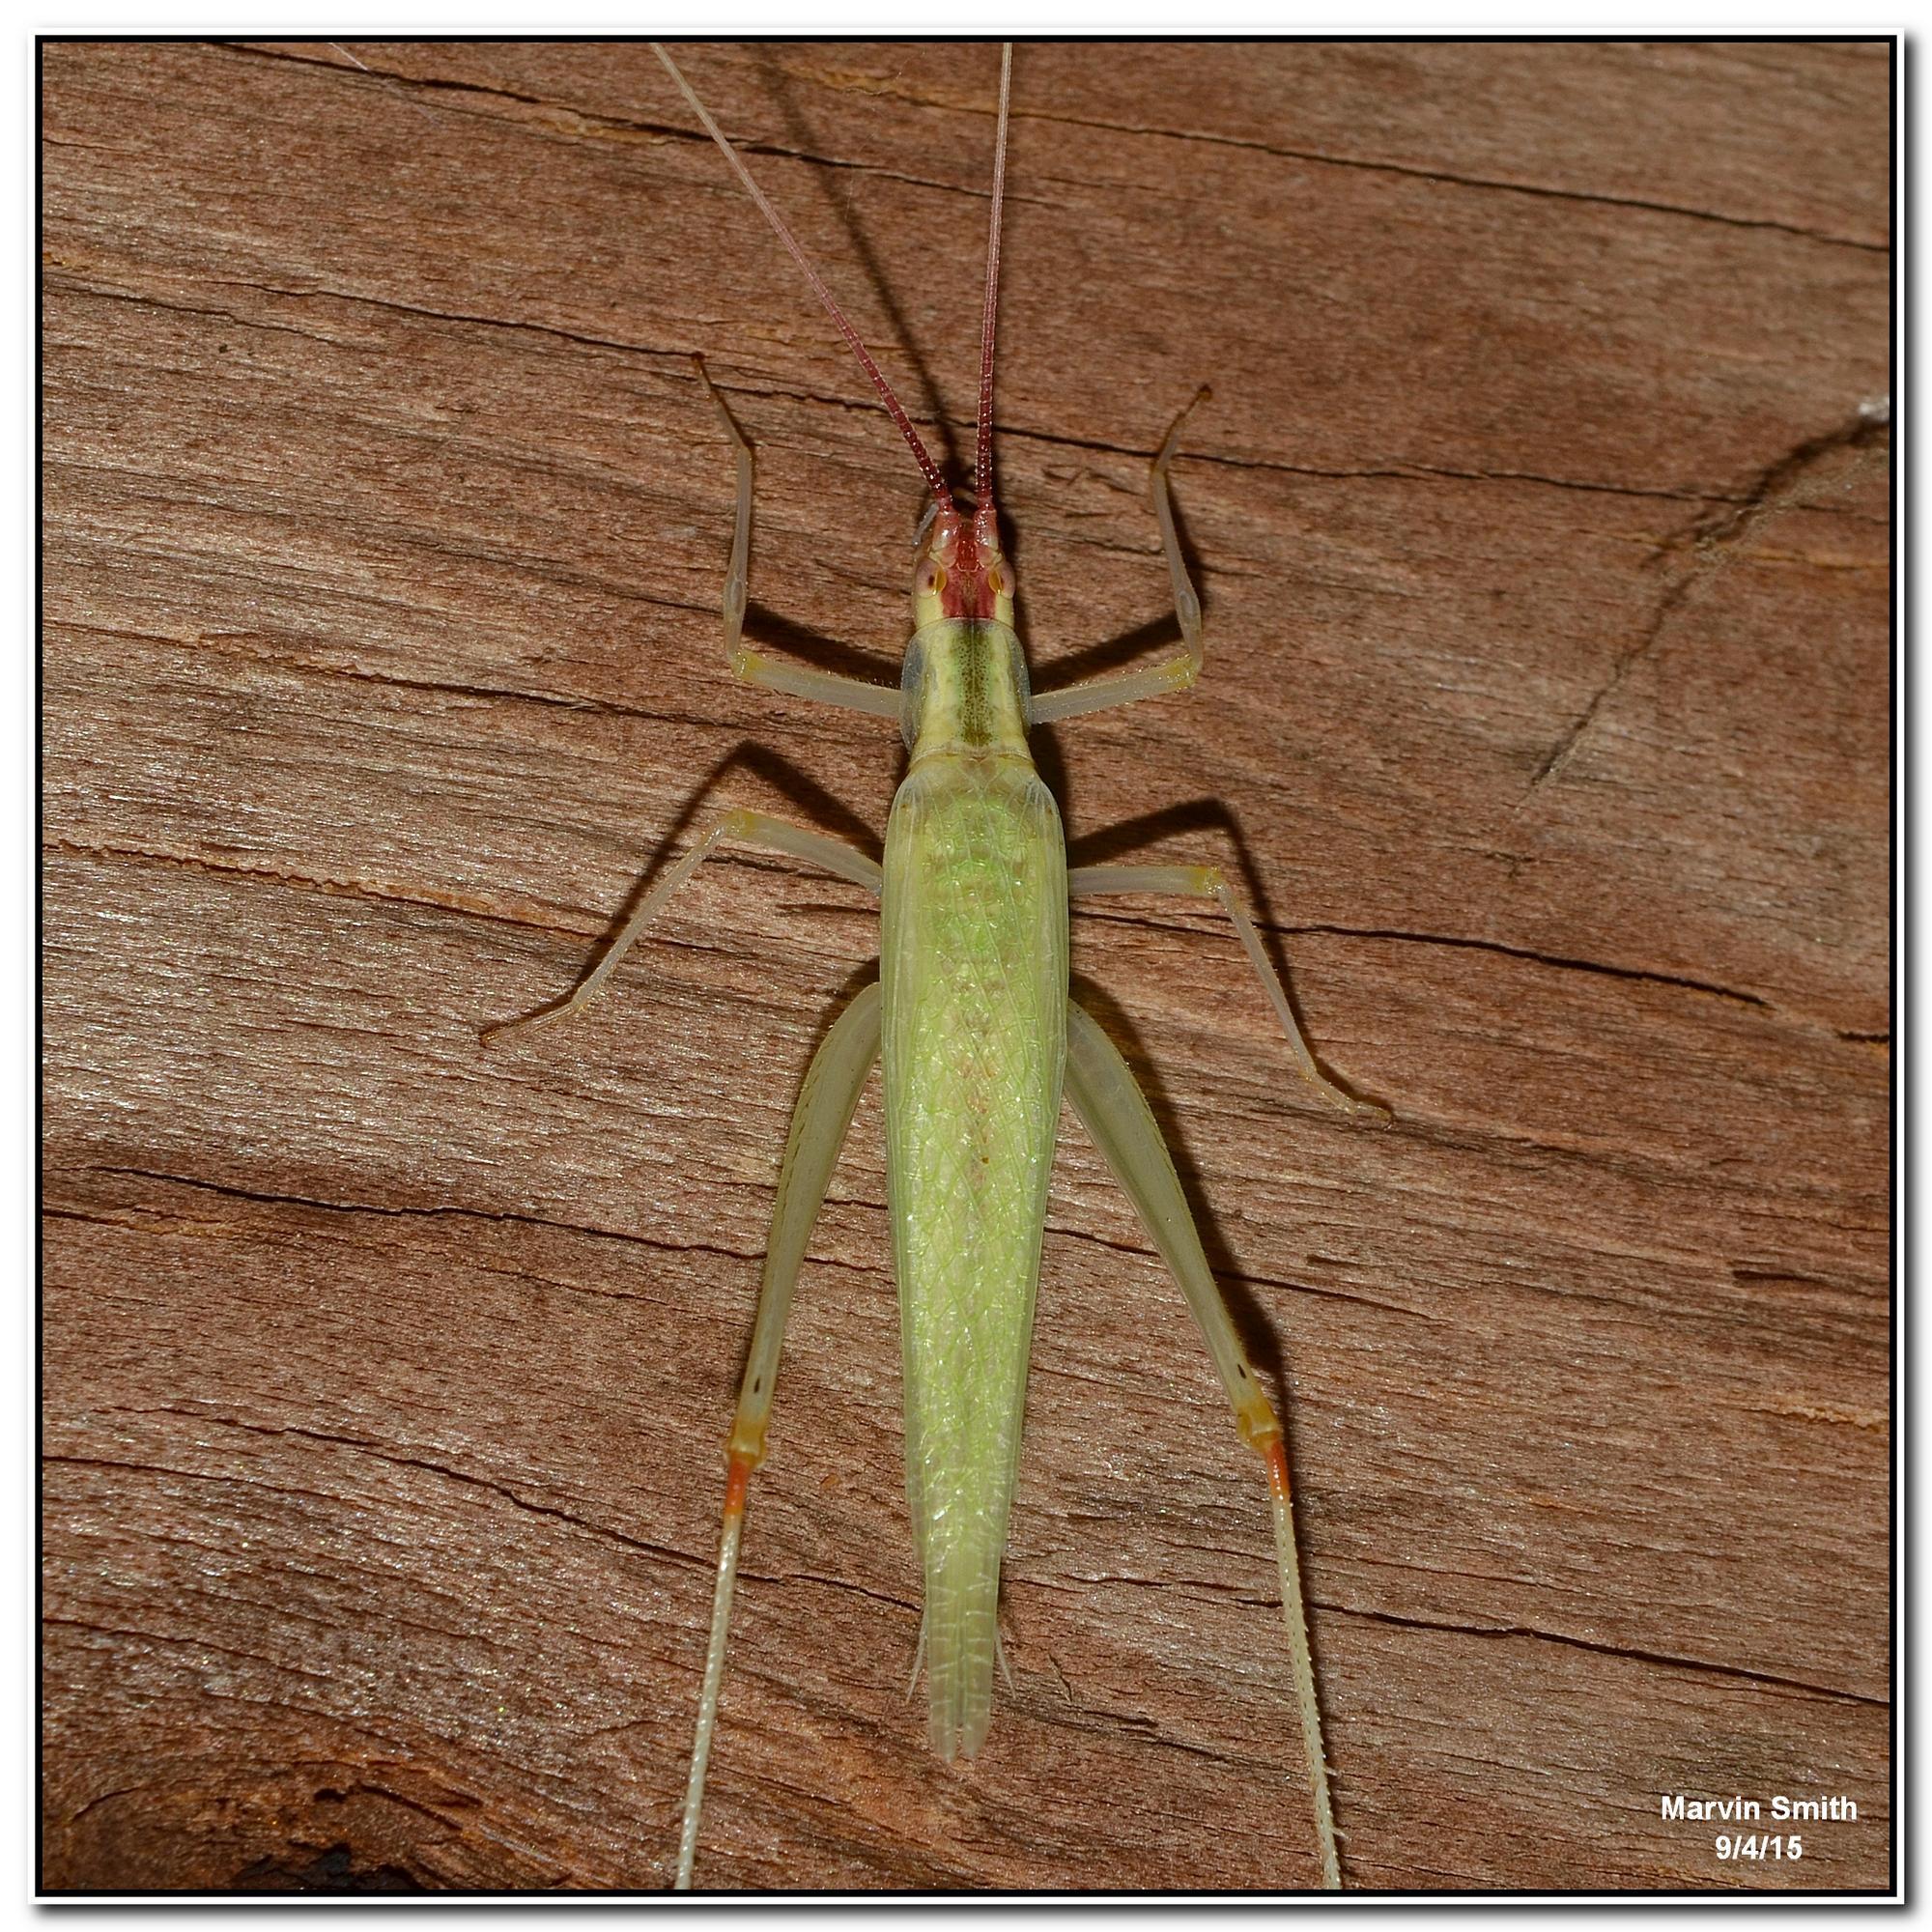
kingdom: Animalia
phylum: Arthropoda
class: Insecta
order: Orthoptera
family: Gryllidae
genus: Oecanthus
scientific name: Oecanthus latipennis
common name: Broad-winged tree cricket
